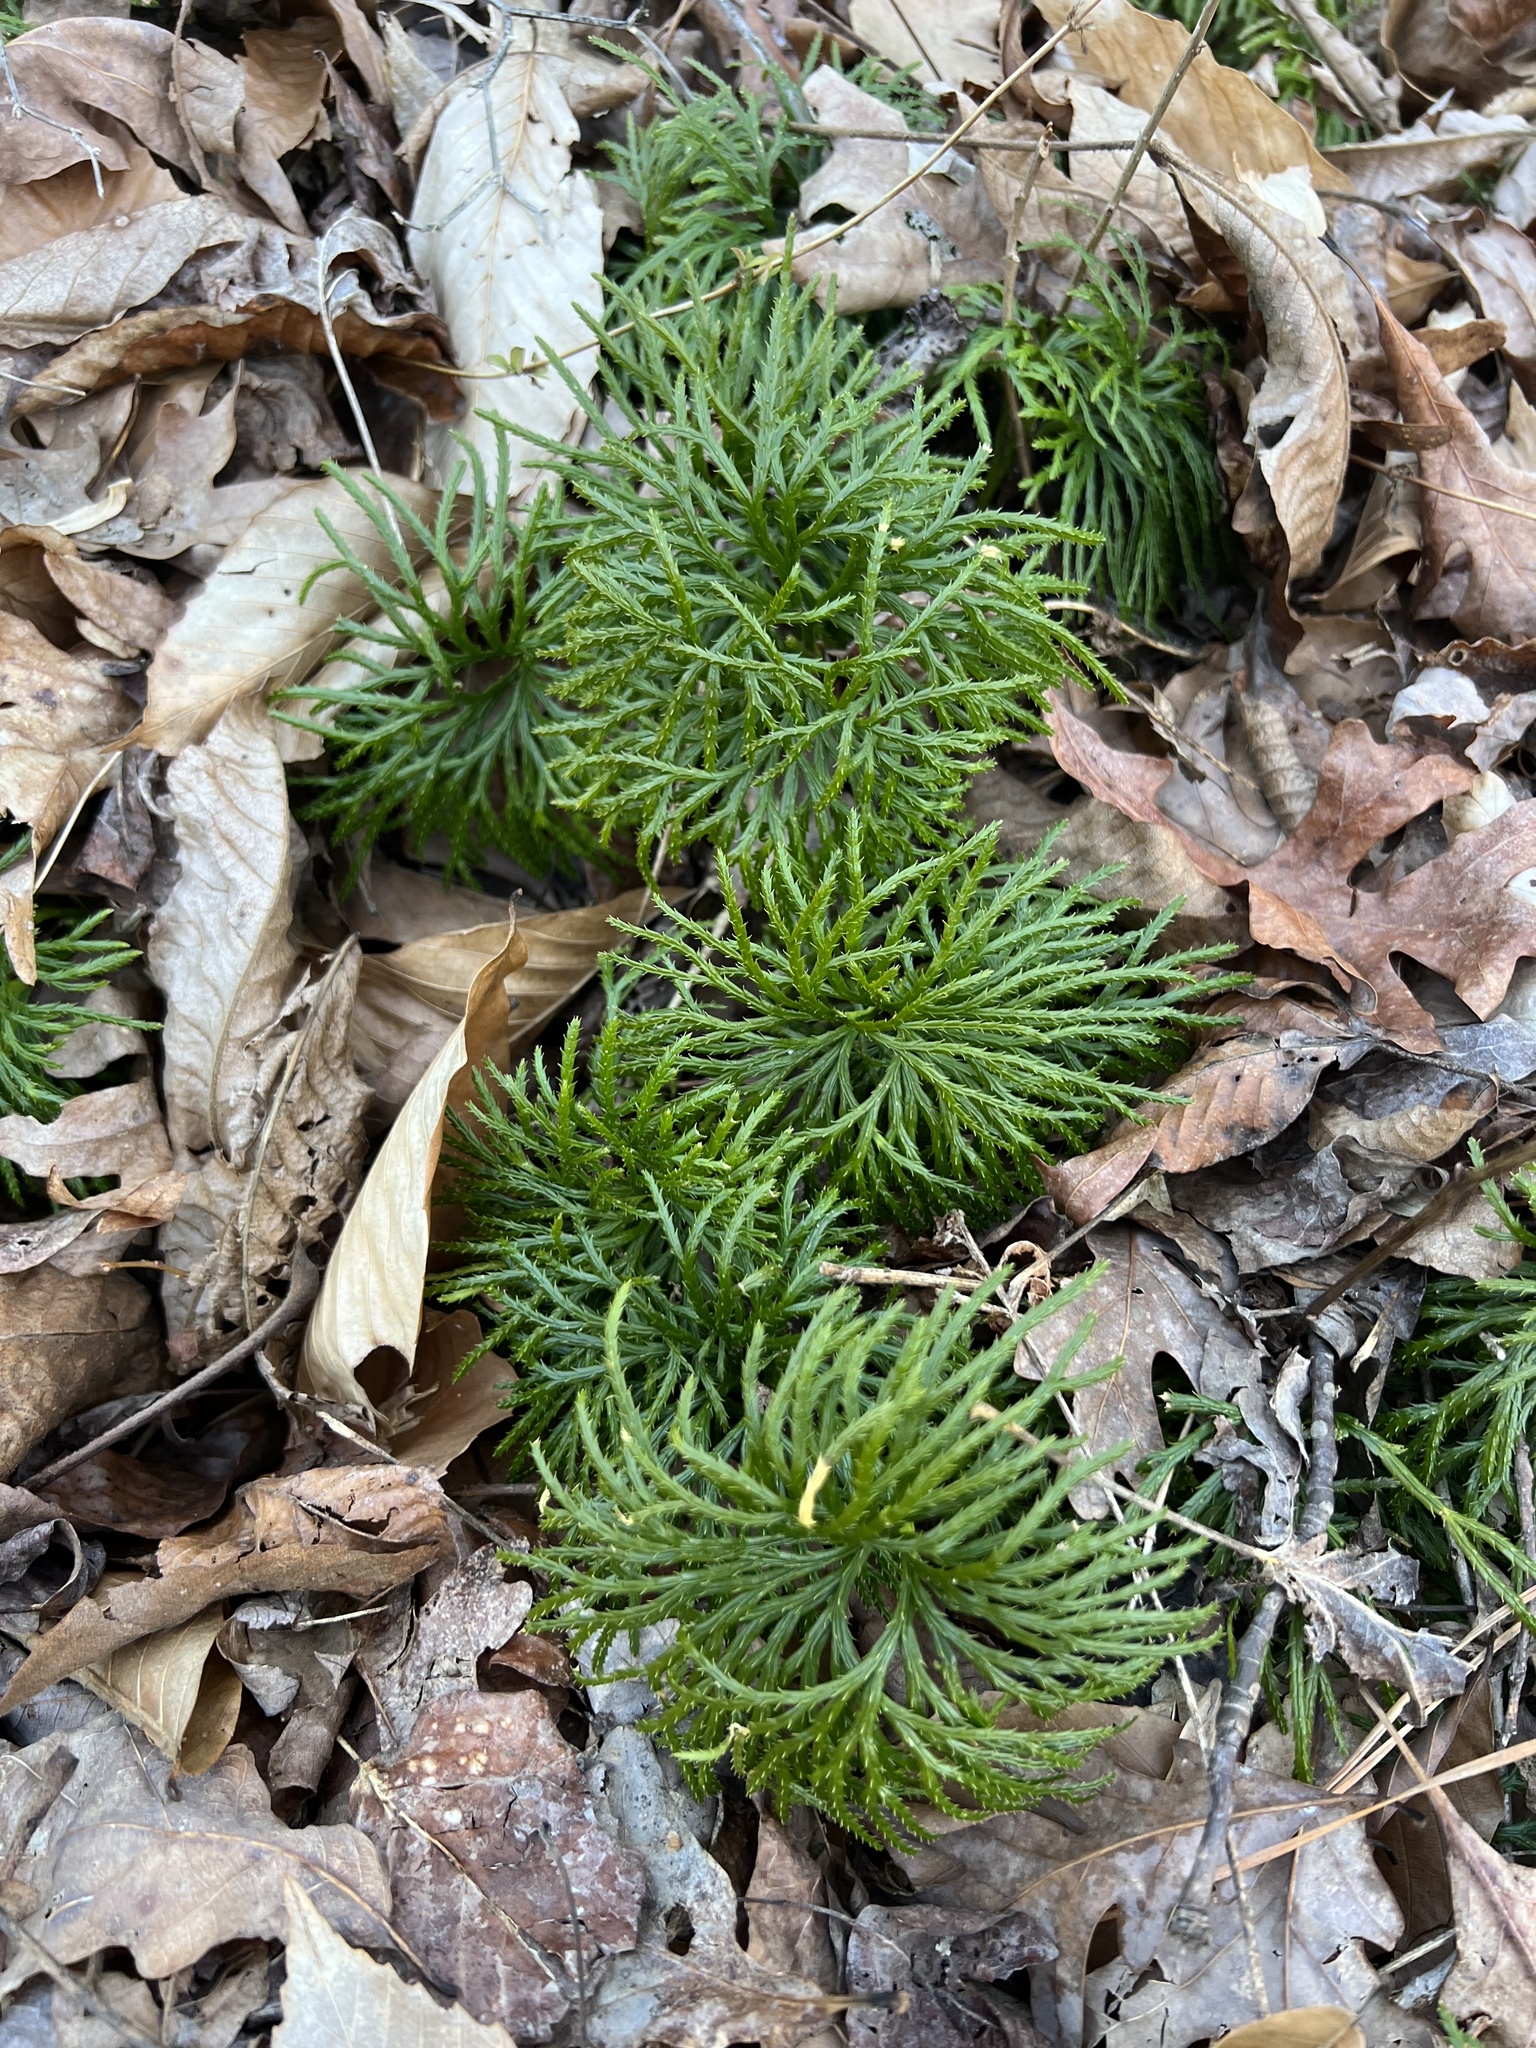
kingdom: Plantae
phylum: Tracheophyta
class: Lycopodiopsida
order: Lycopodiales
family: Lycopodiaceae
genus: Diphasiastrum
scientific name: Diphasiastrum digitatum
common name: Southern running-pine
